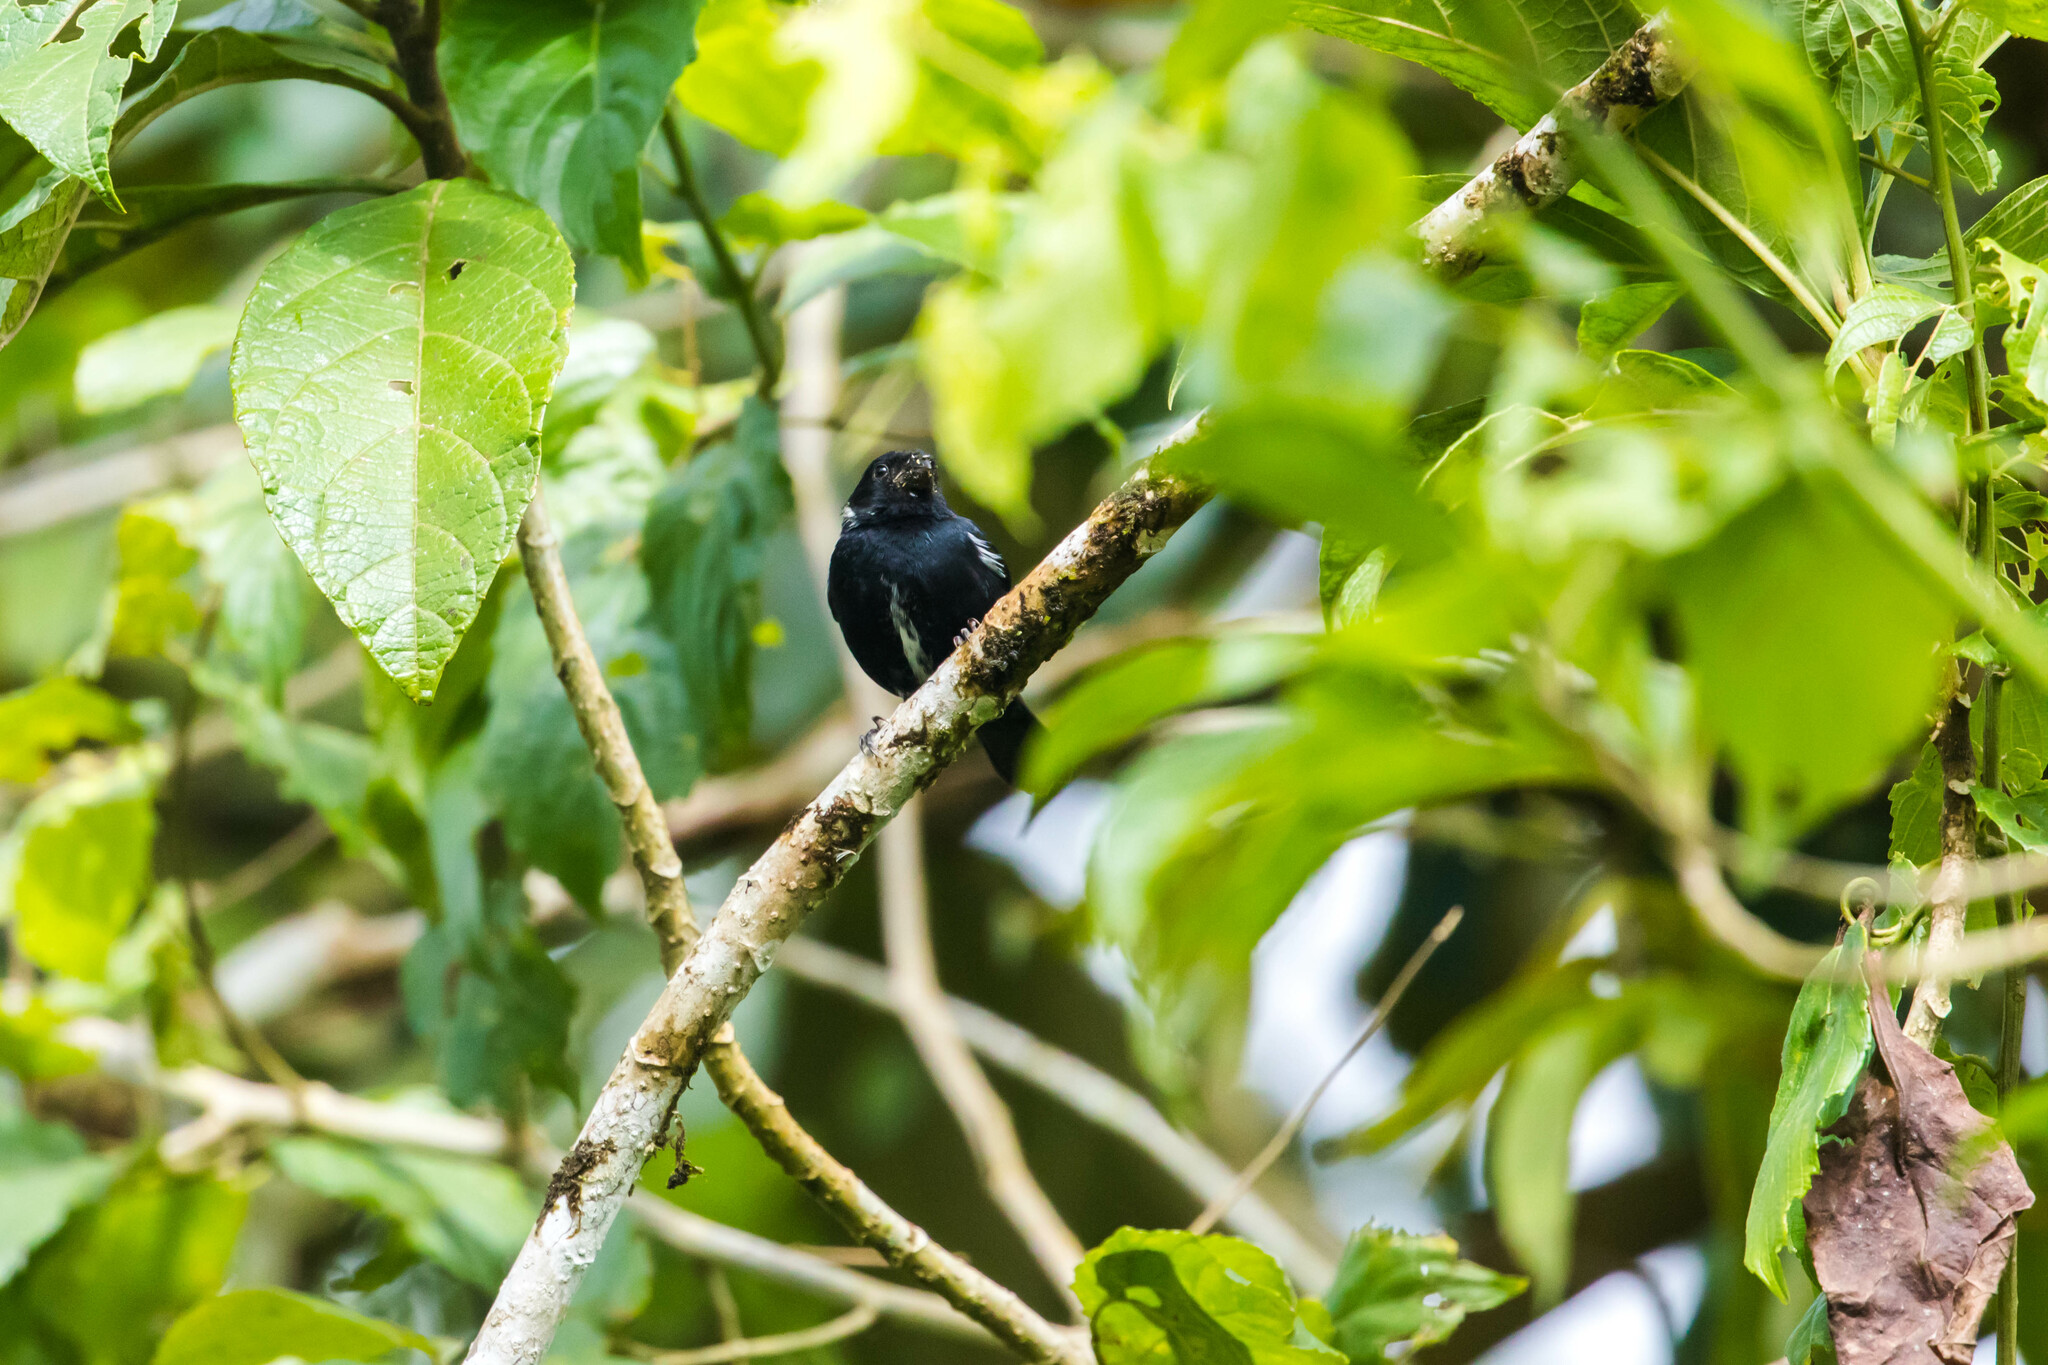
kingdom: Animalia
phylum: Chordata
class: Aves
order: Passeriformes
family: Thraupidae
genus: Sporophila
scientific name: Sporophila corvina
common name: Variable seedeater
